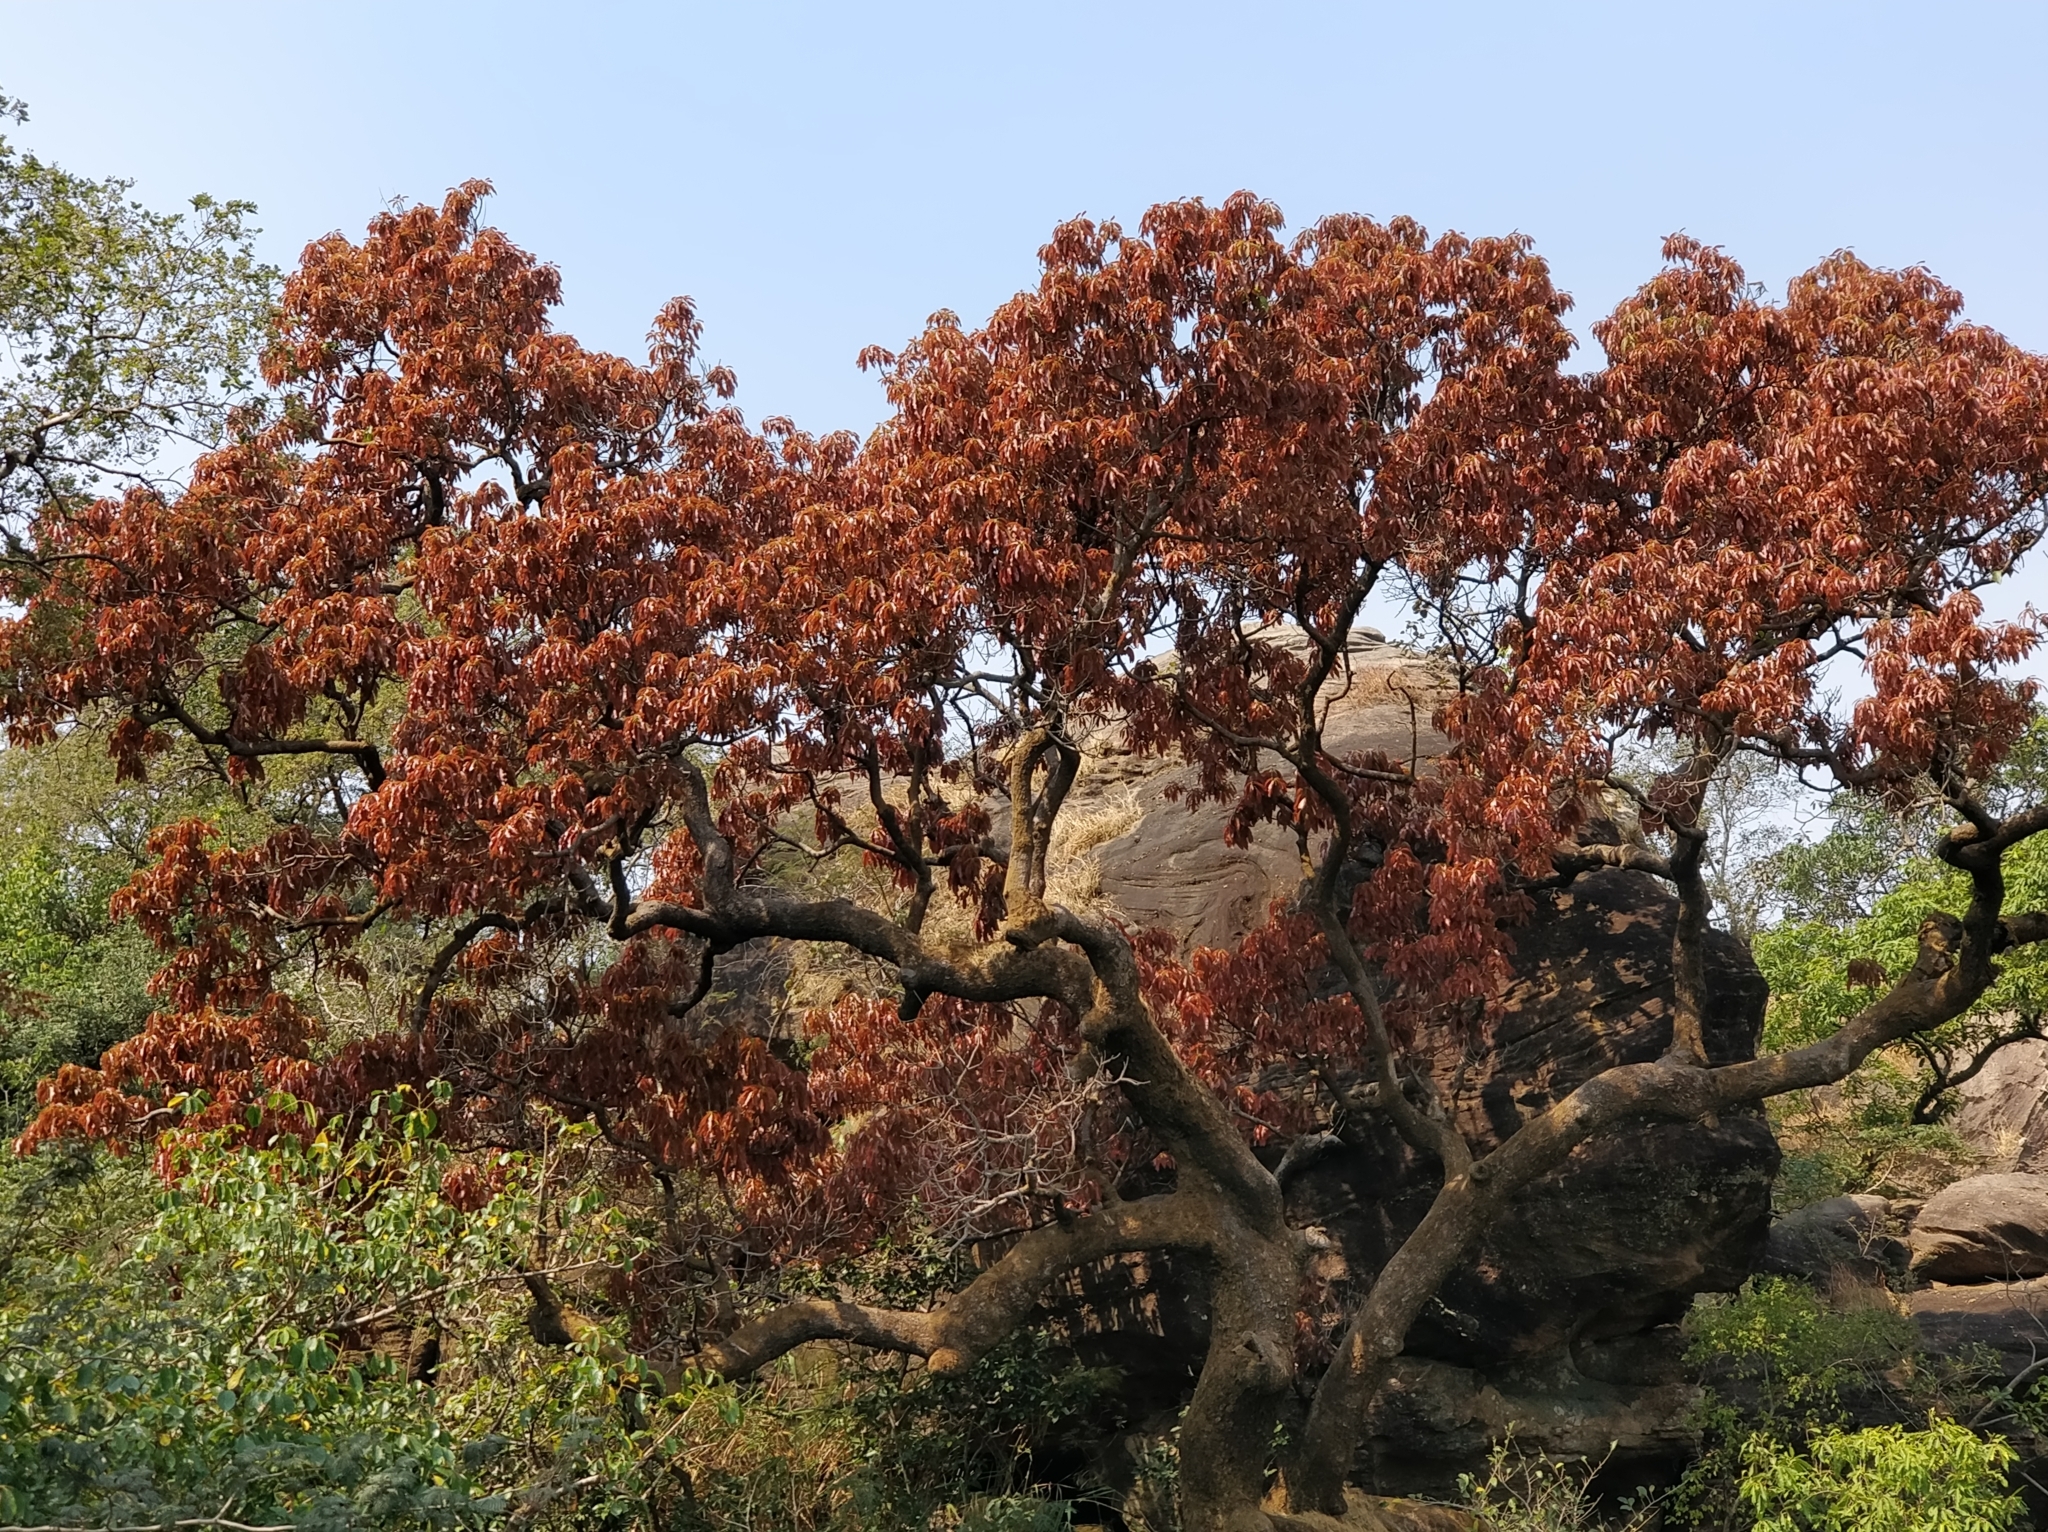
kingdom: Plantae
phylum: Tracheophyta
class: Magnoliopsida
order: Sapindales
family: Anacardiaceae
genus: Mangifera
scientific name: Mangifera indica
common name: Mango
